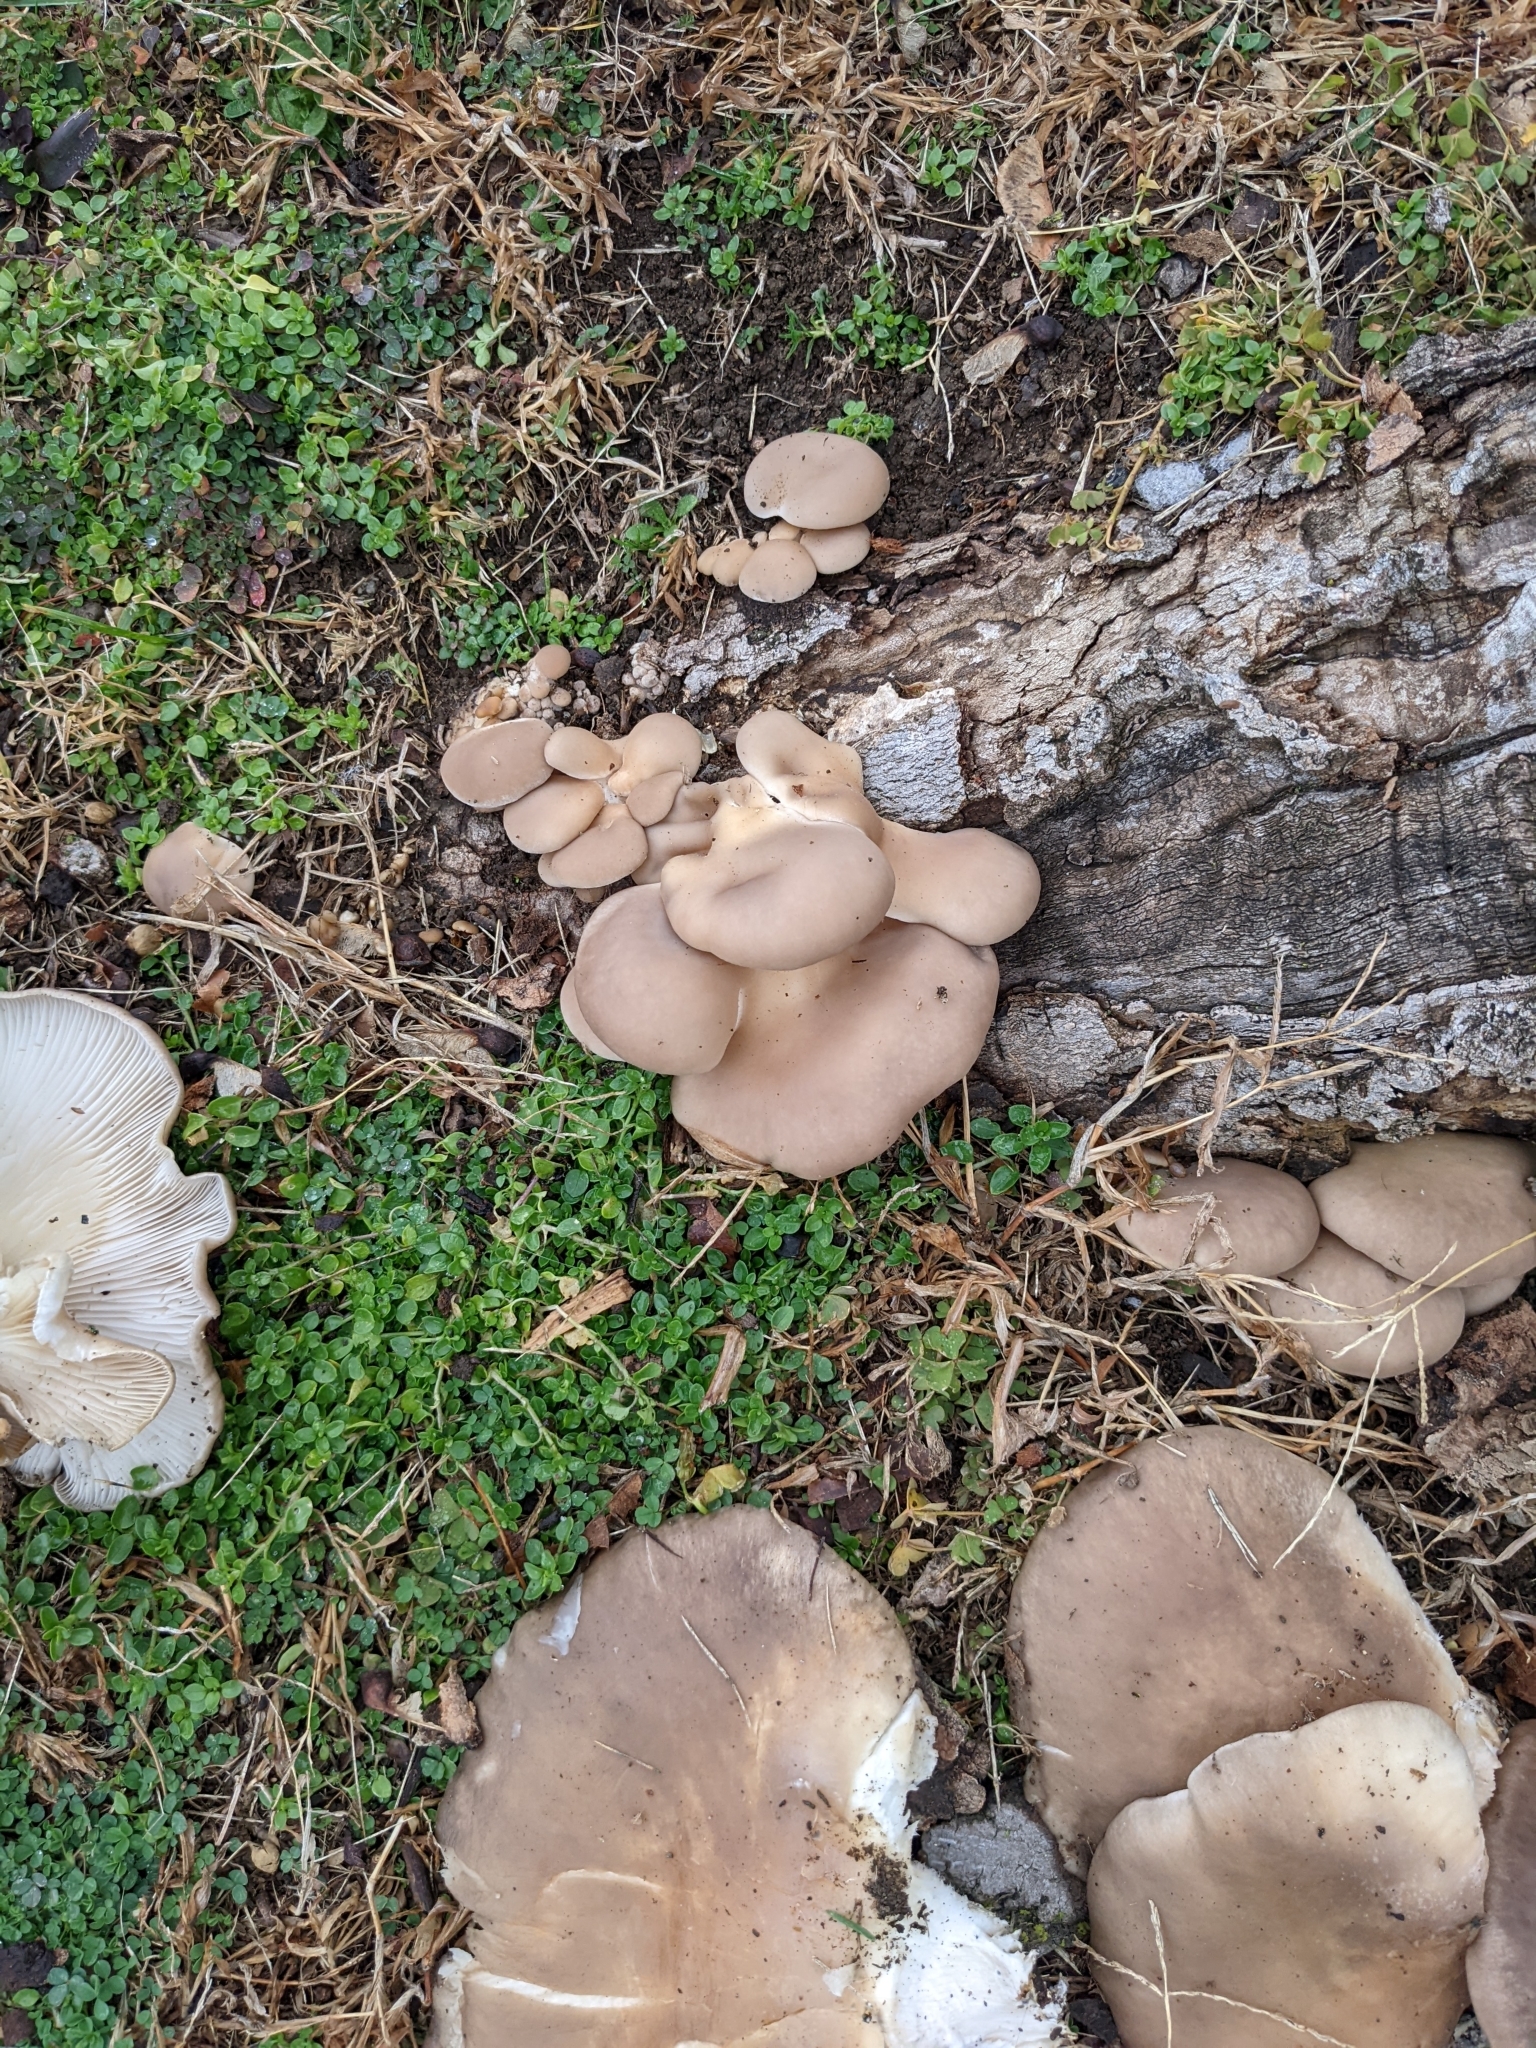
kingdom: Fungi
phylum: Basidiomycota
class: Agaricomycetes
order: Agaricales
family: Pleurotaceae
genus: Pleurotus
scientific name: Pleurotus
